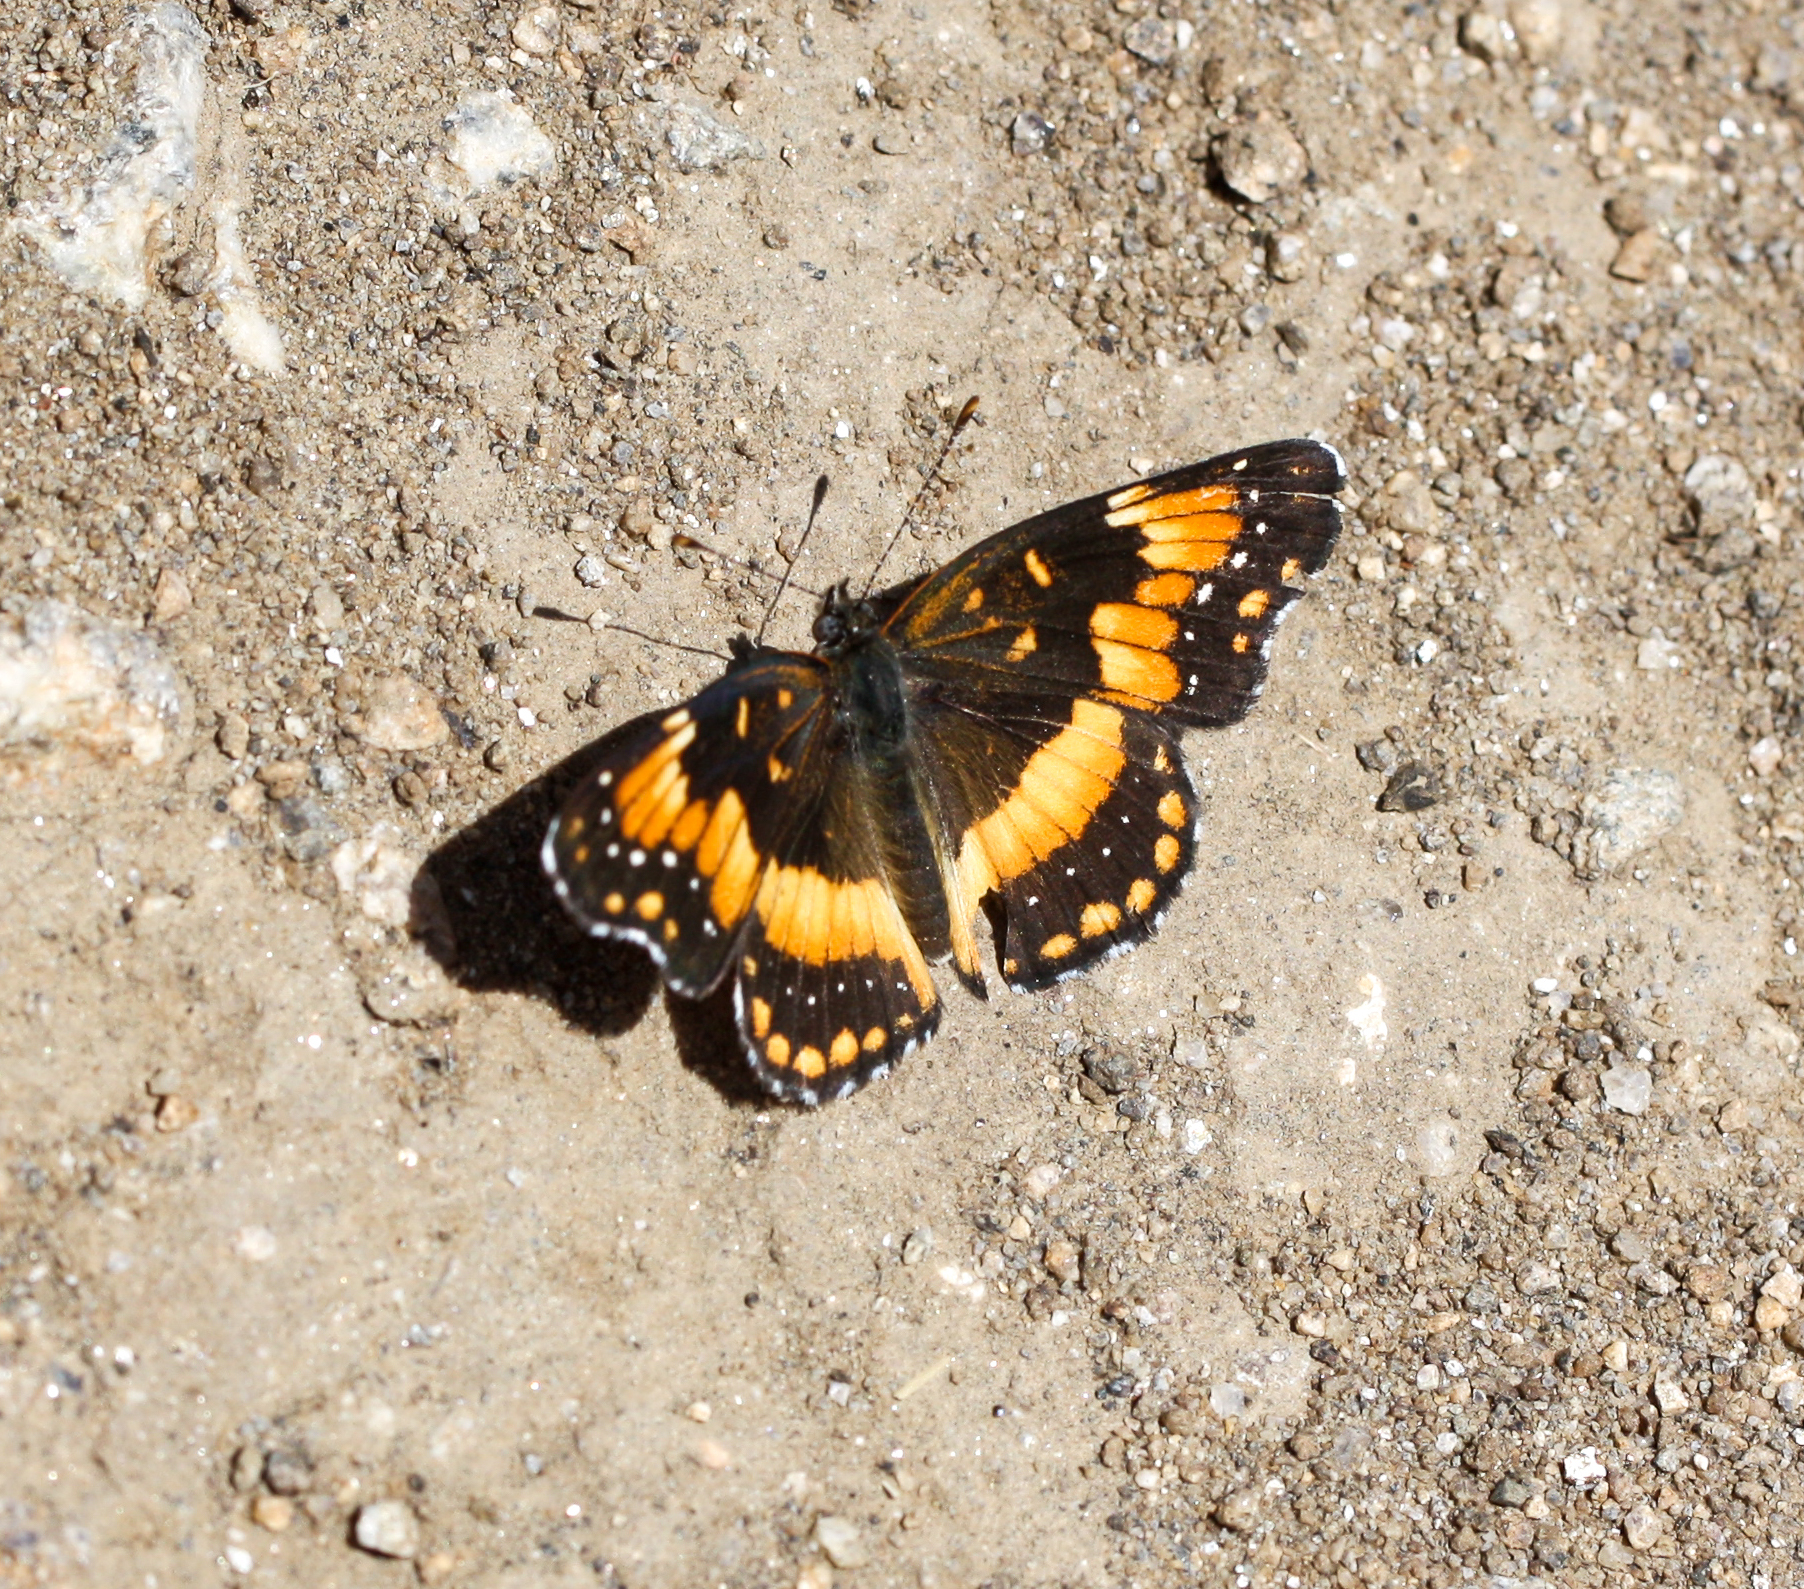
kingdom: Animalia
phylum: Arthropoda
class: Insecta
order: Lepidoptera
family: Nymphalidae
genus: Chlosyne
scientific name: Chlosyne californica
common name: California patch
